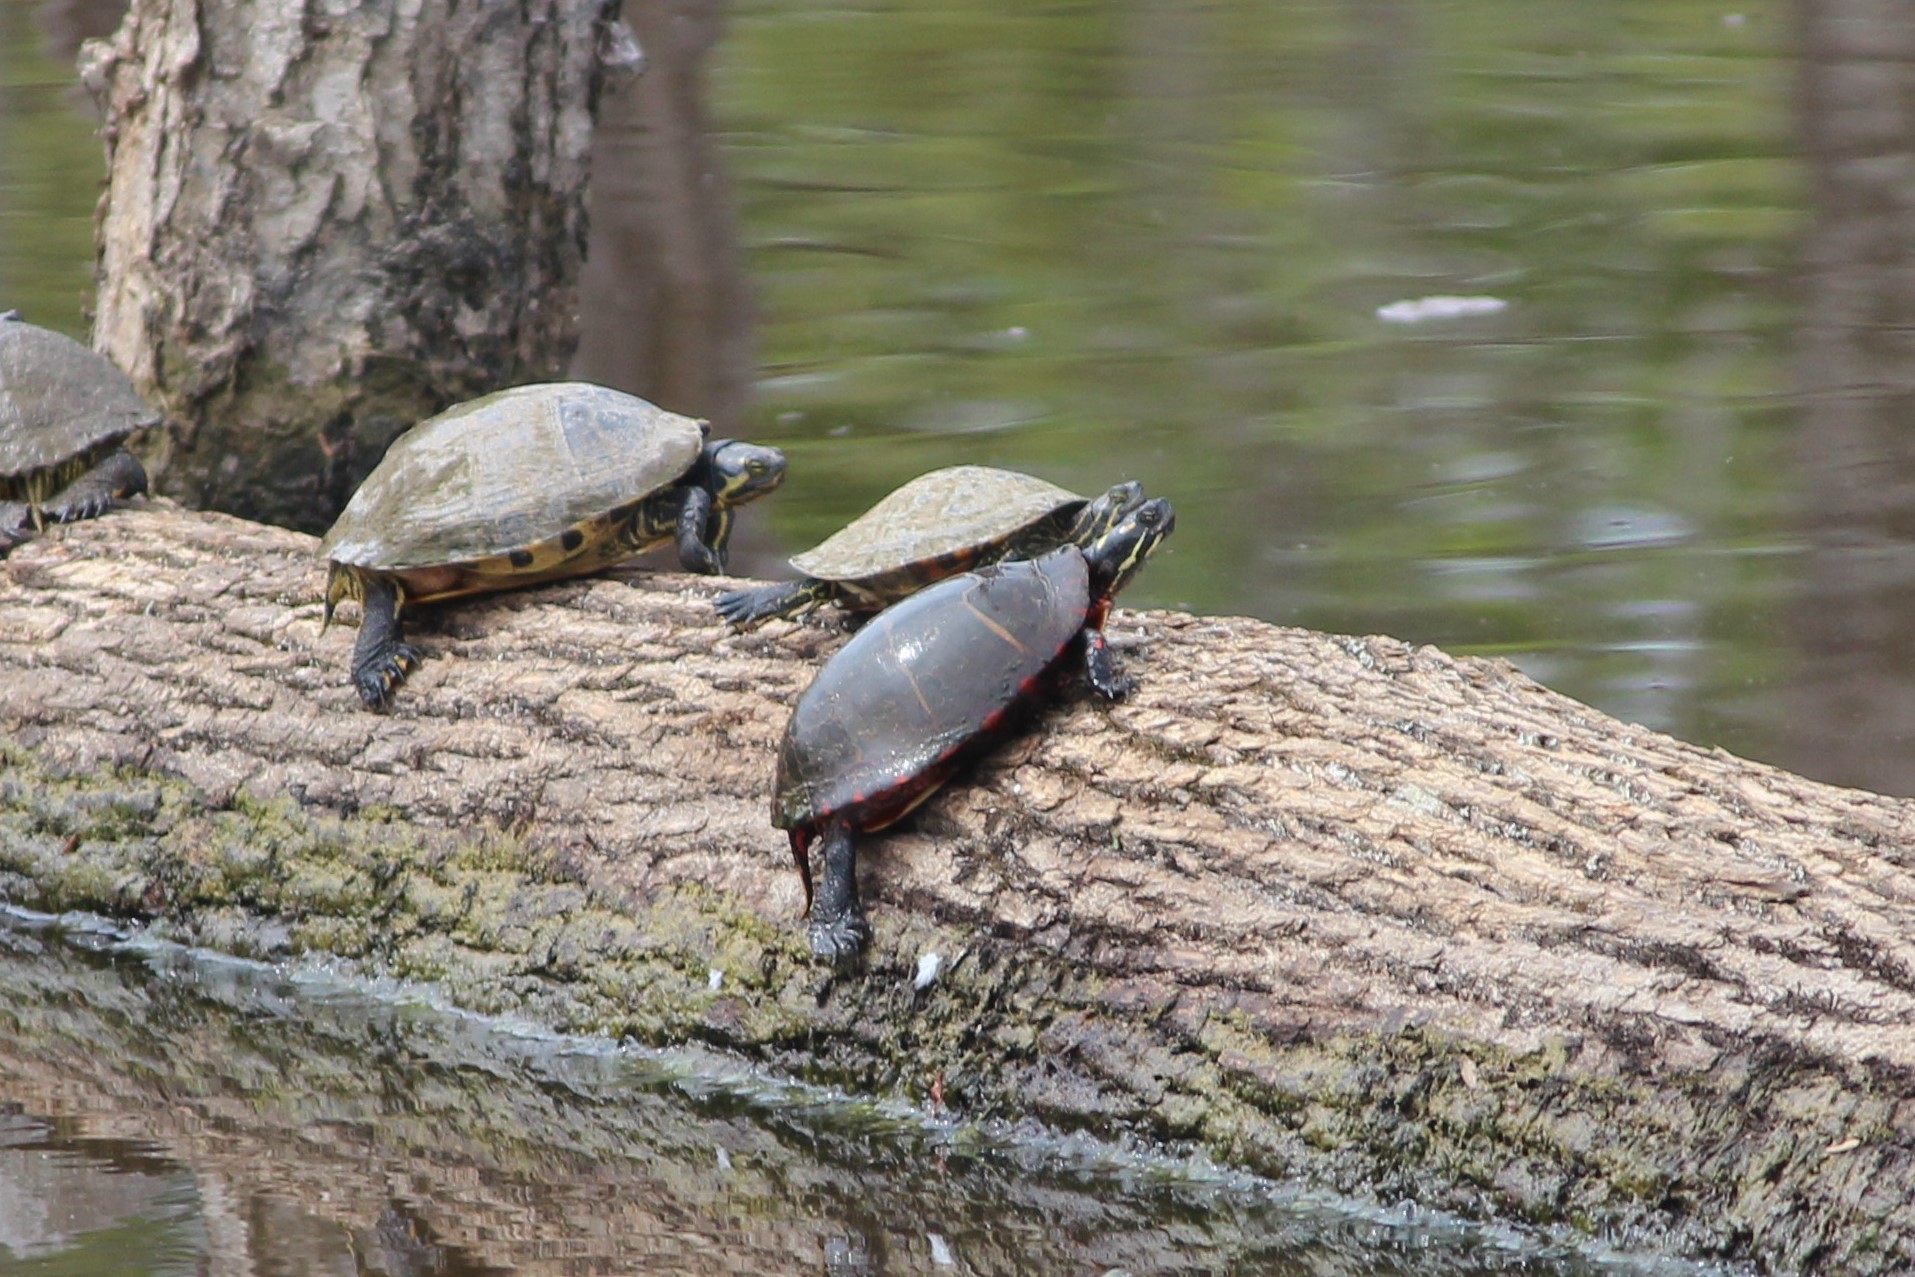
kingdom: Animalia
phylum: Chordata
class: Testudines
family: Emydidae
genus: Chrysemys
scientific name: Chrysemys picta
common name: Painted turtle
